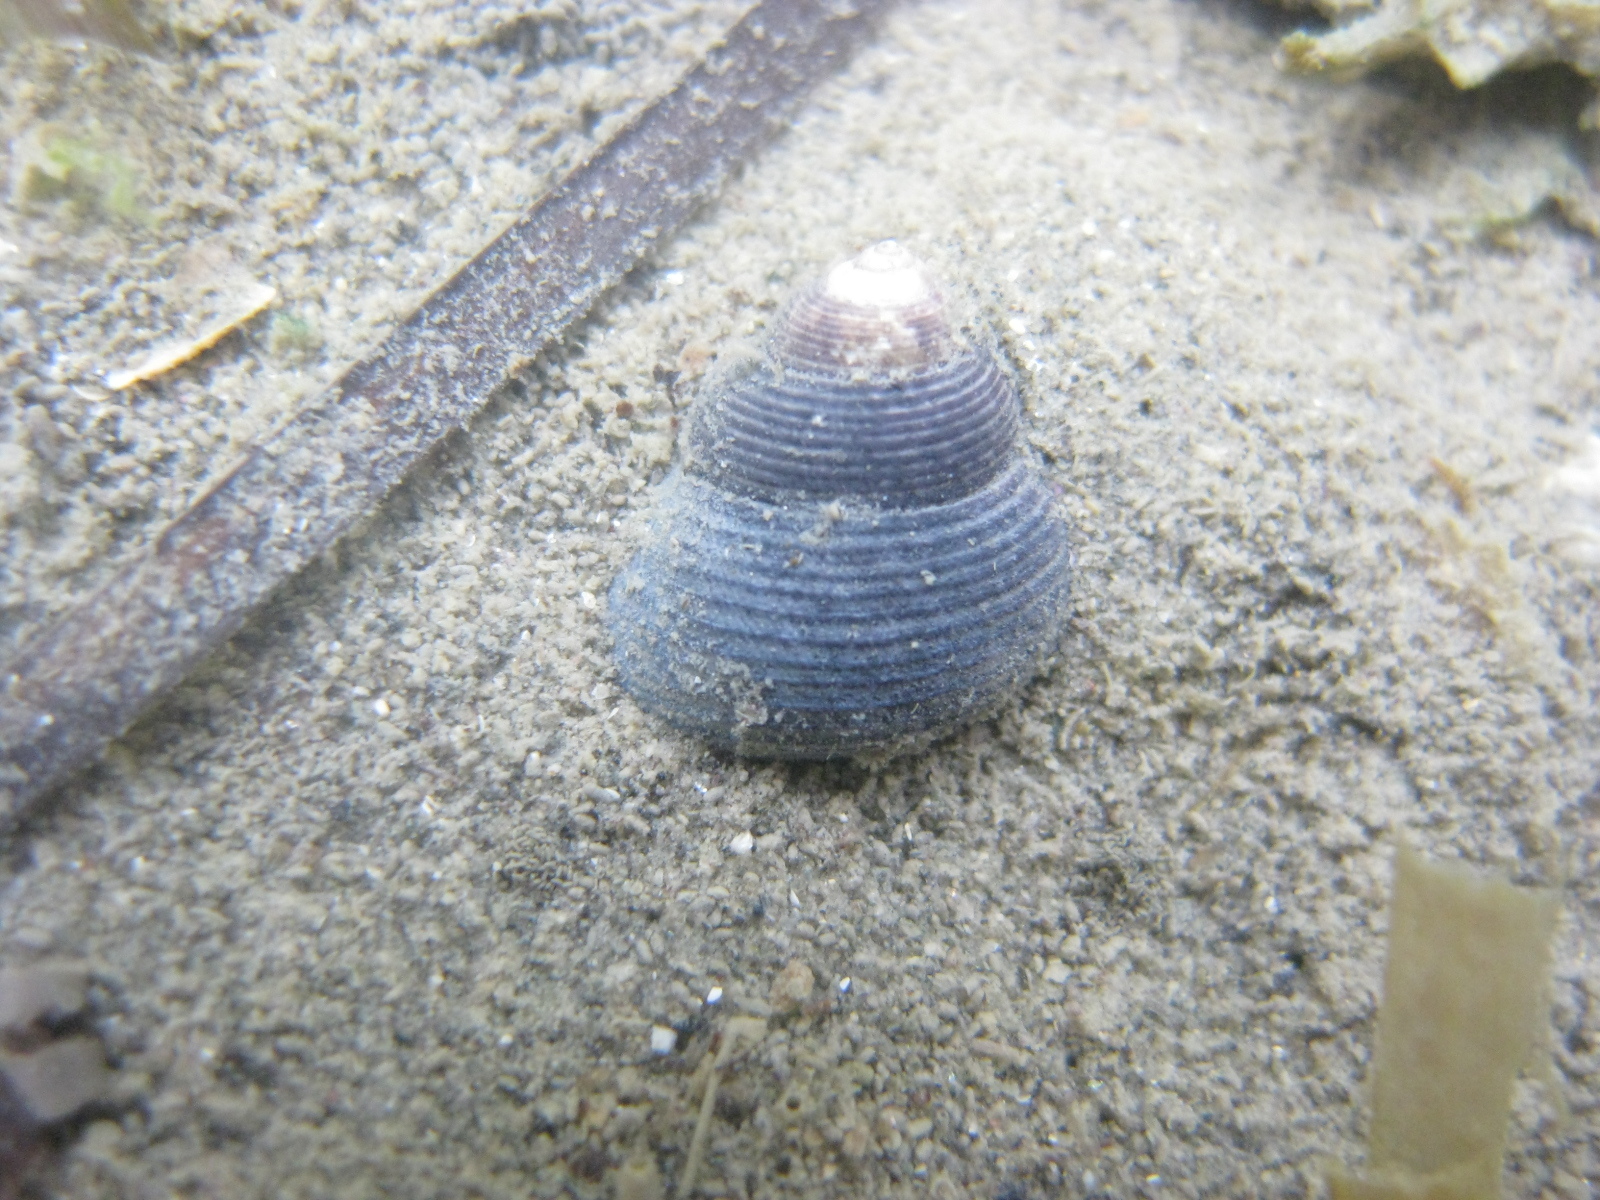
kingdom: Animalia
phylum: Mollusca
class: Gastropoda
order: Trochida
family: Trochidae
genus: Micrelenchus
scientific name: Micrelenchus huttonii
